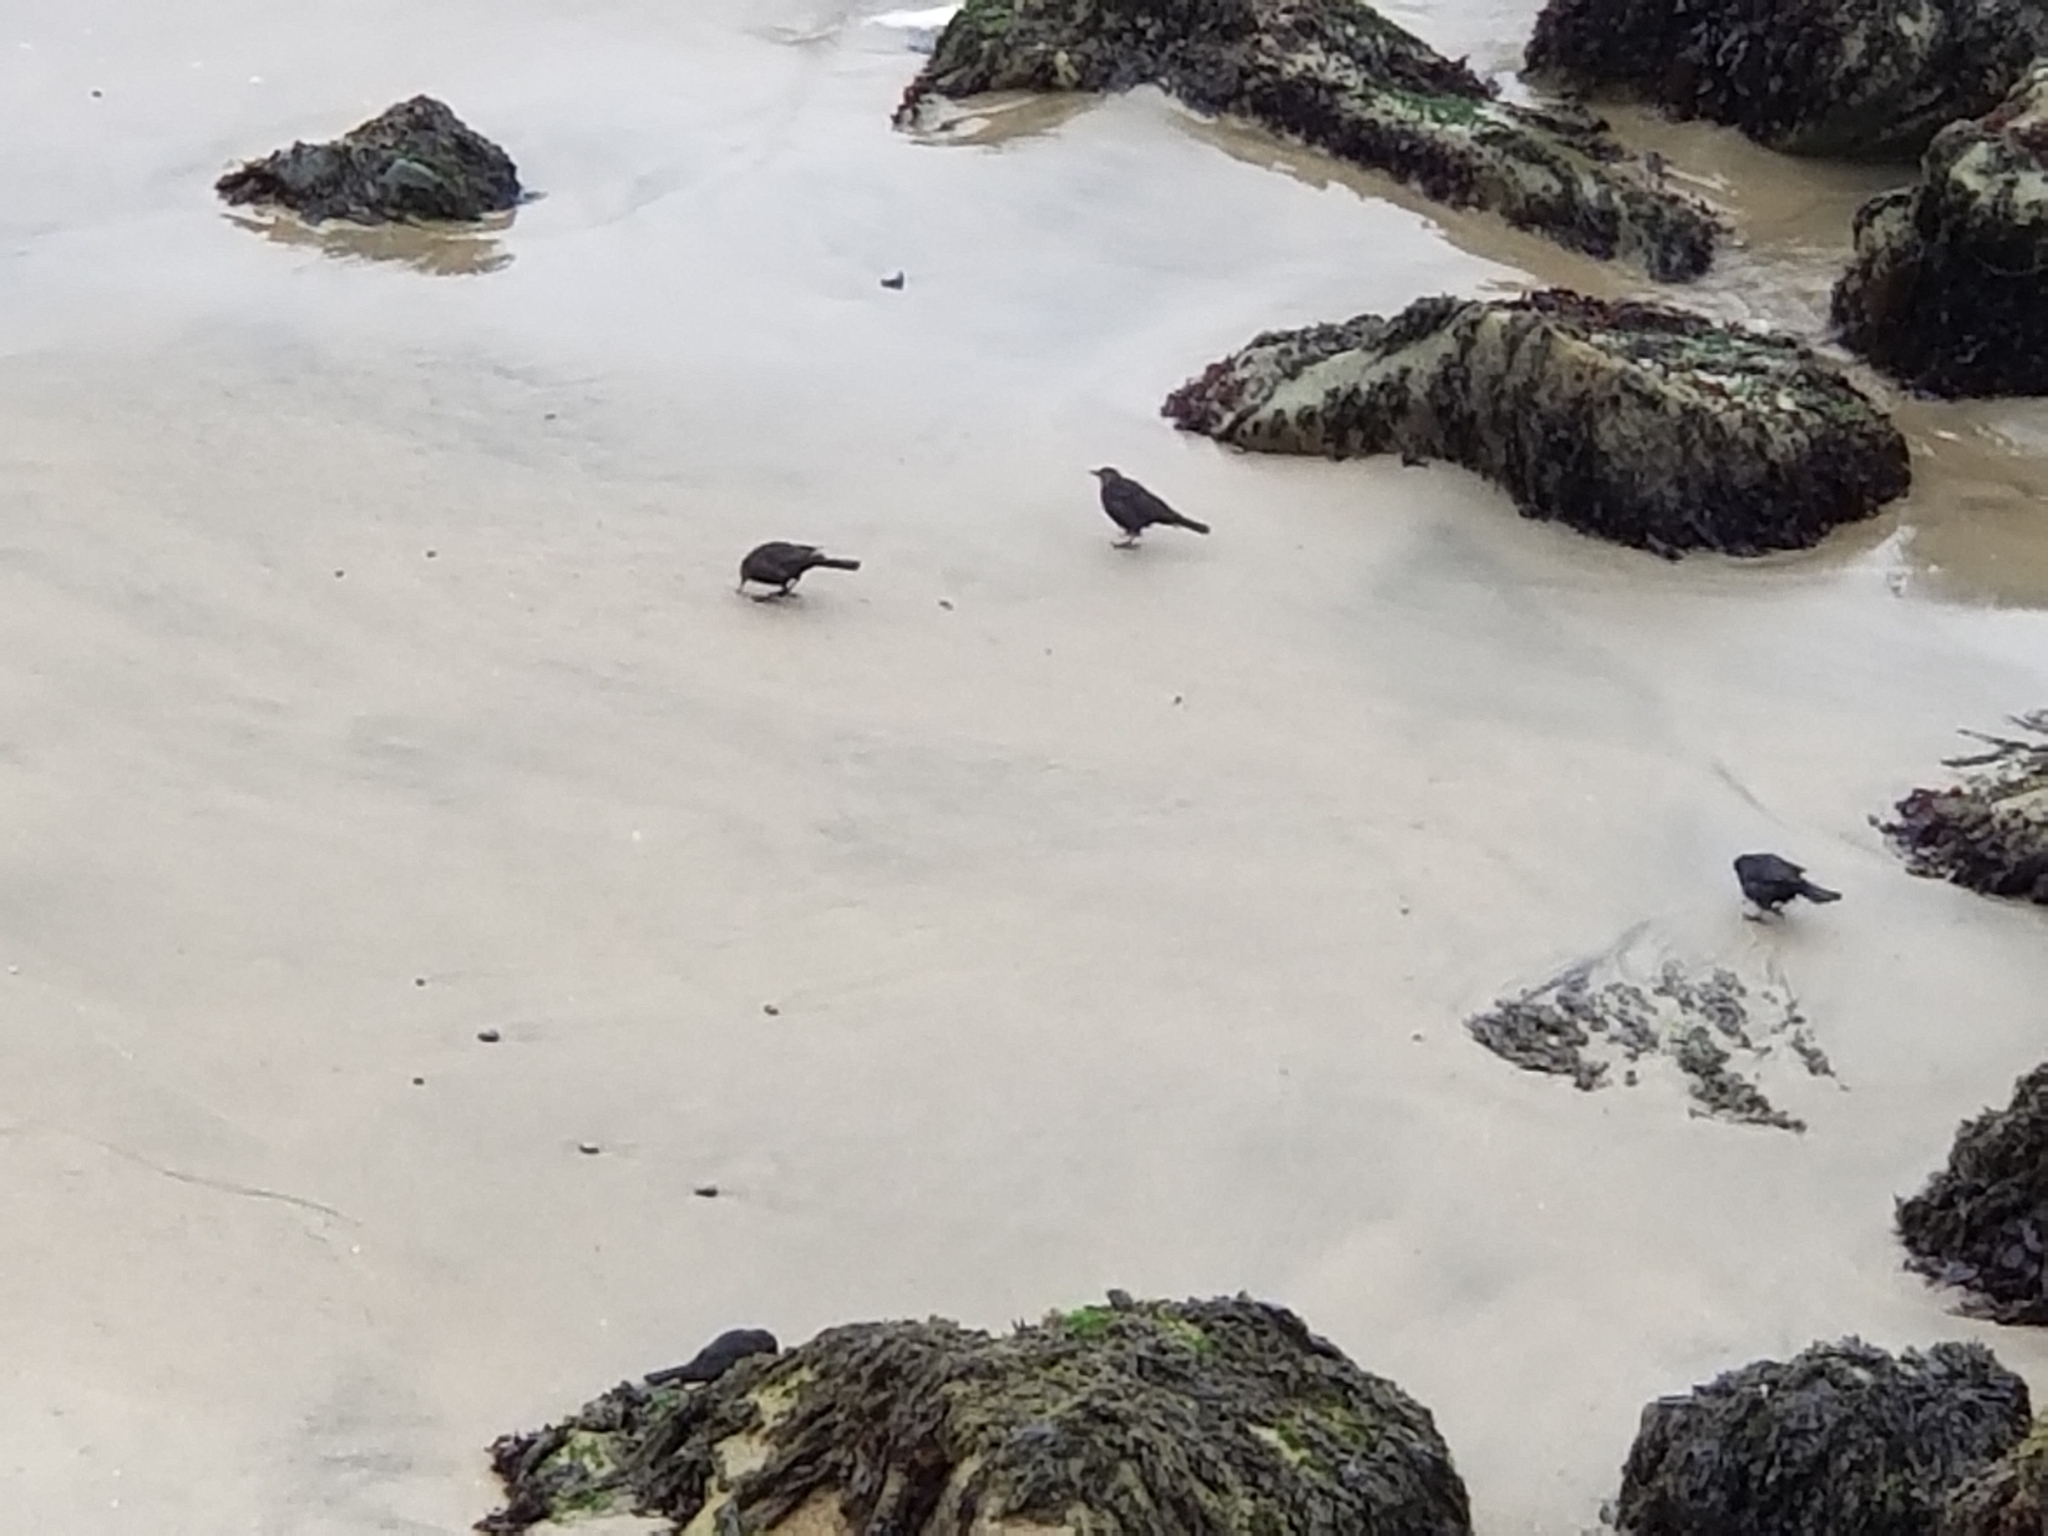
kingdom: Animalia
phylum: Chordata
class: Aves
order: Passeriformes
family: Icteridae
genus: Euphagus
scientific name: Euphagus cyanocephalus
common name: Brewer's blackbird
